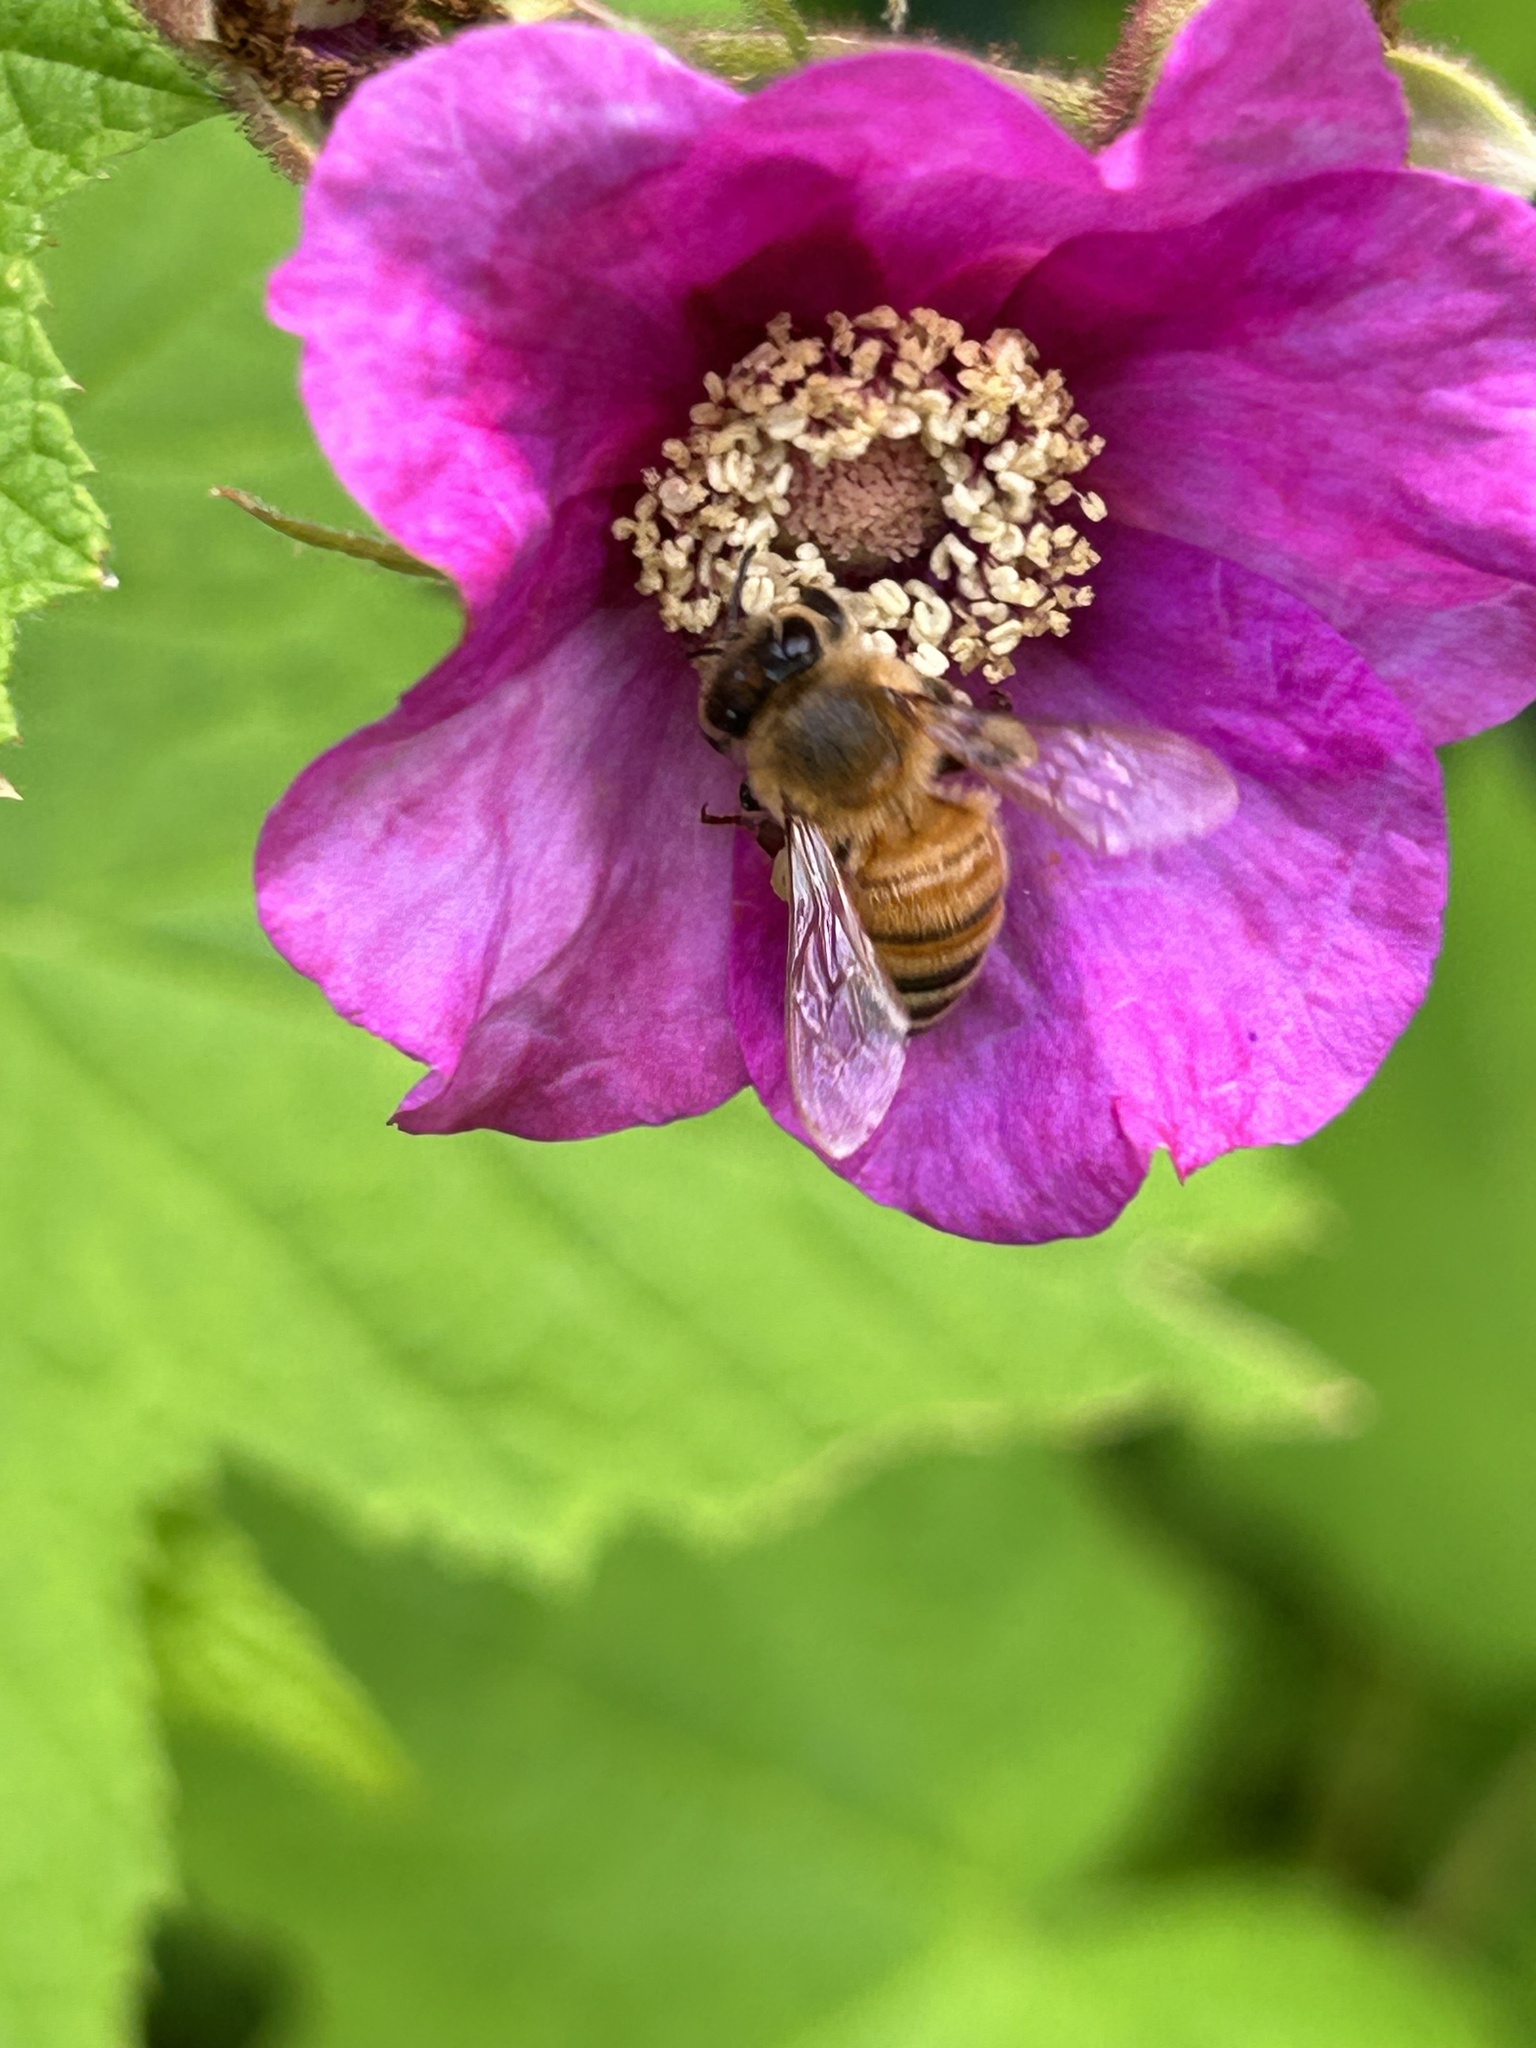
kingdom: Animalia
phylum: Arthropoda
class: Insecta
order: Hymenoptera
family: Apidae
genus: Apis
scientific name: Apis mellifera
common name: Honey bee
